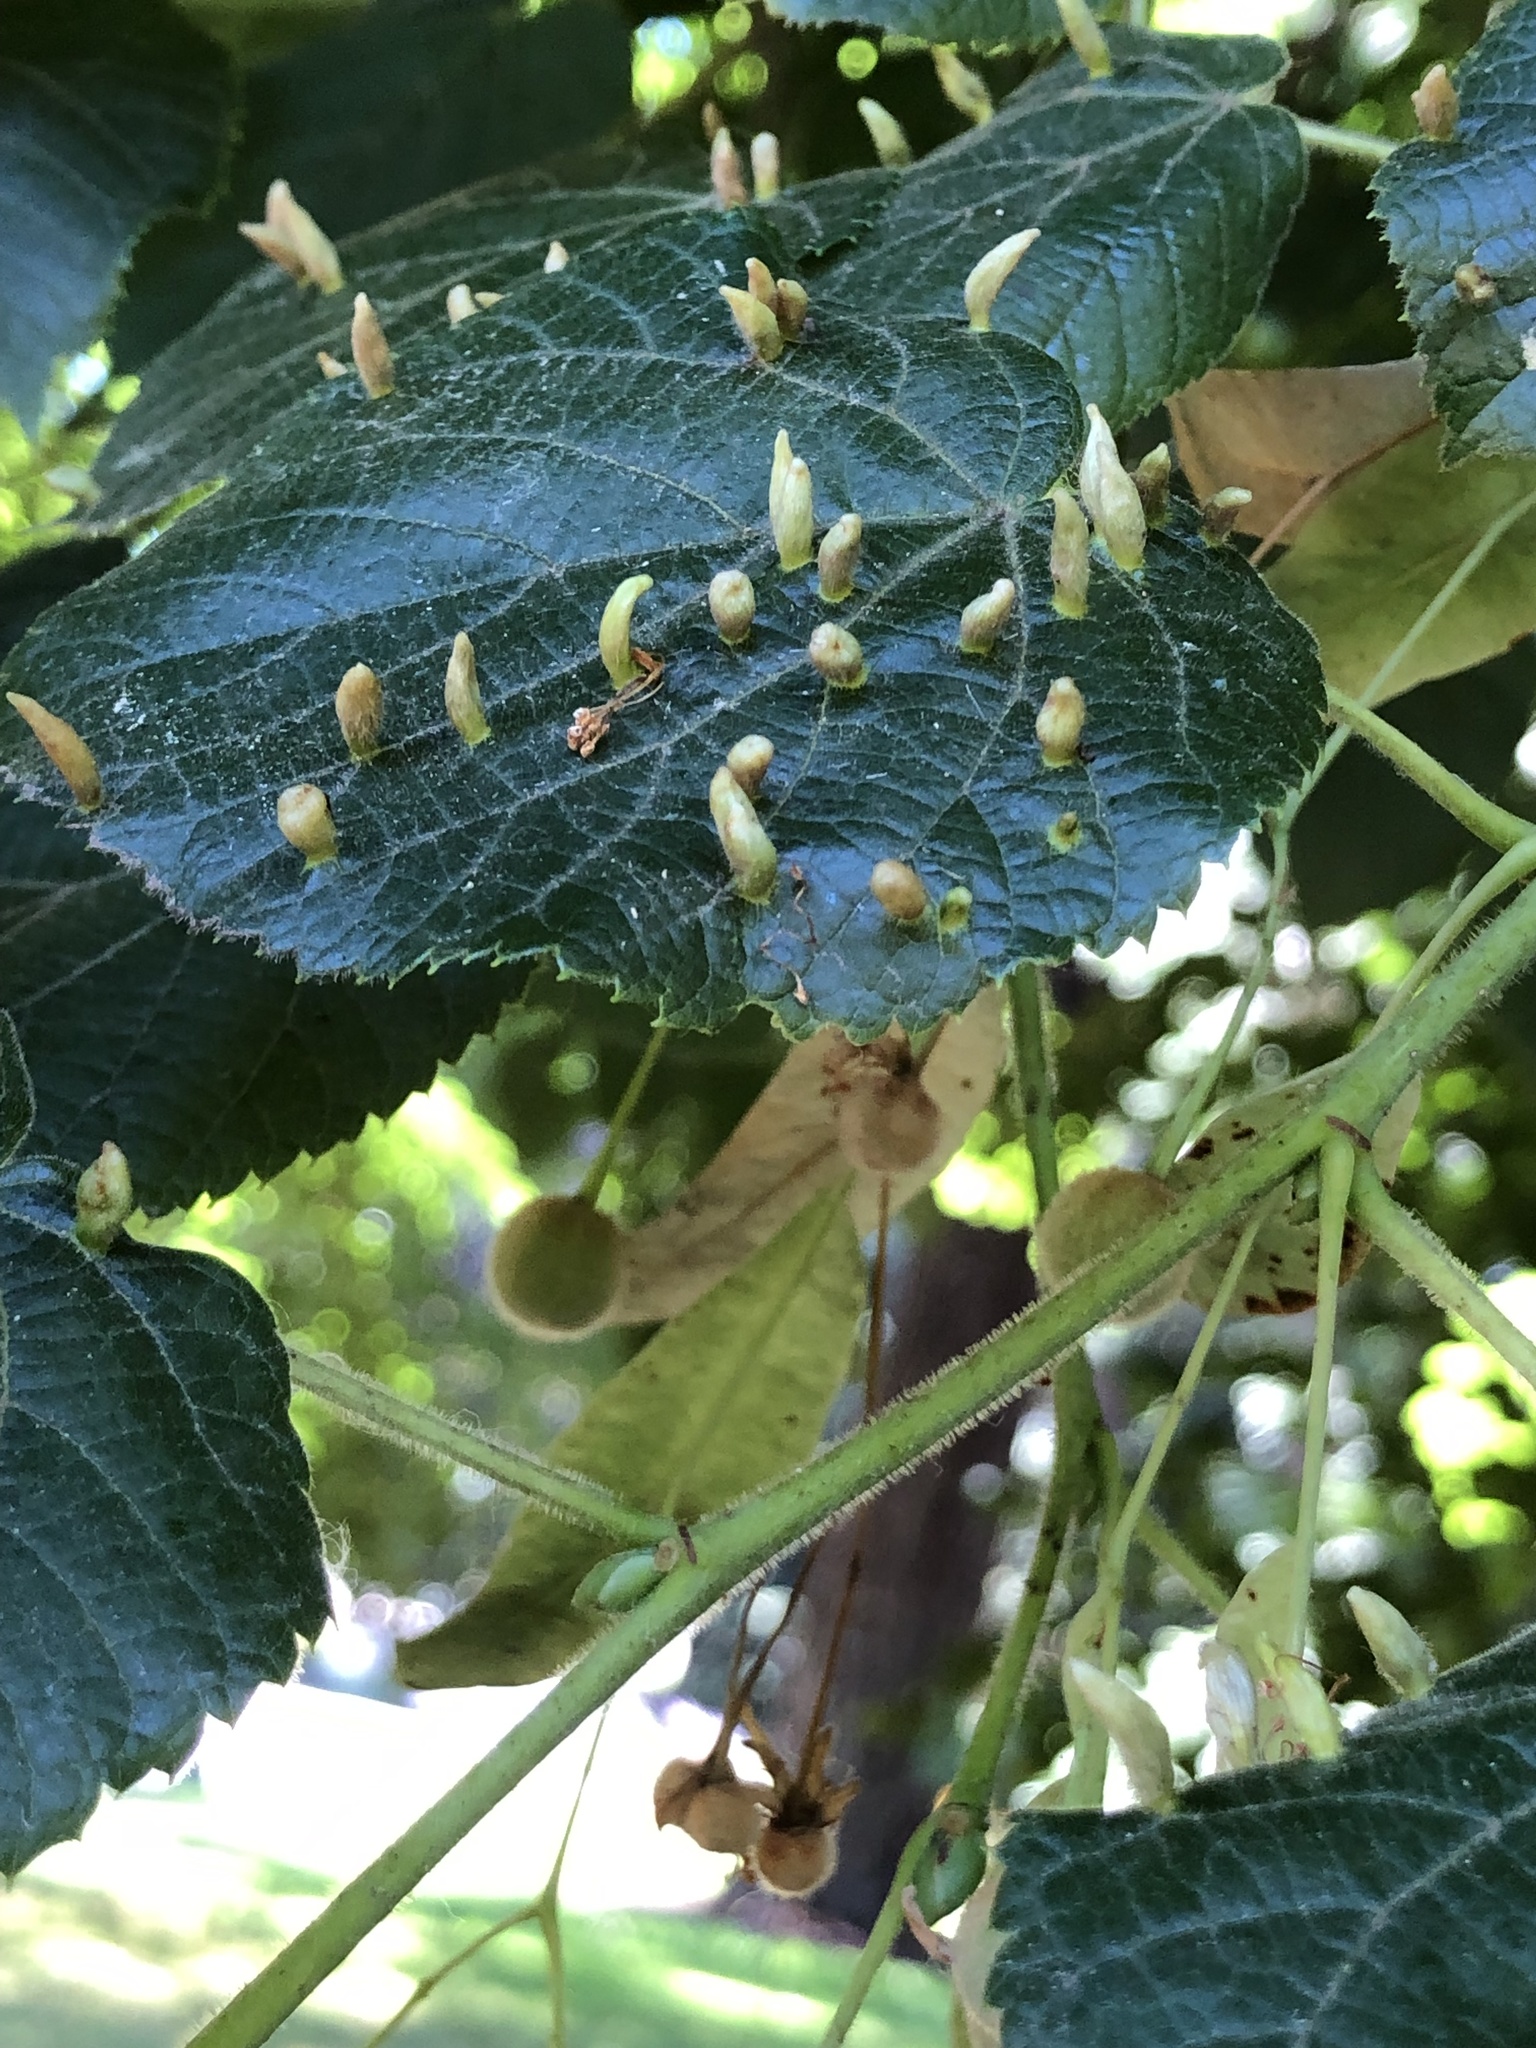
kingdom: Animalia
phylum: Arthropoda
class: Arachnida
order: Trombidiformes
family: Eriophyidae
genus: Eriophyes
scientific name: Eriophyes tiliae
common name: Red nail gall mite
